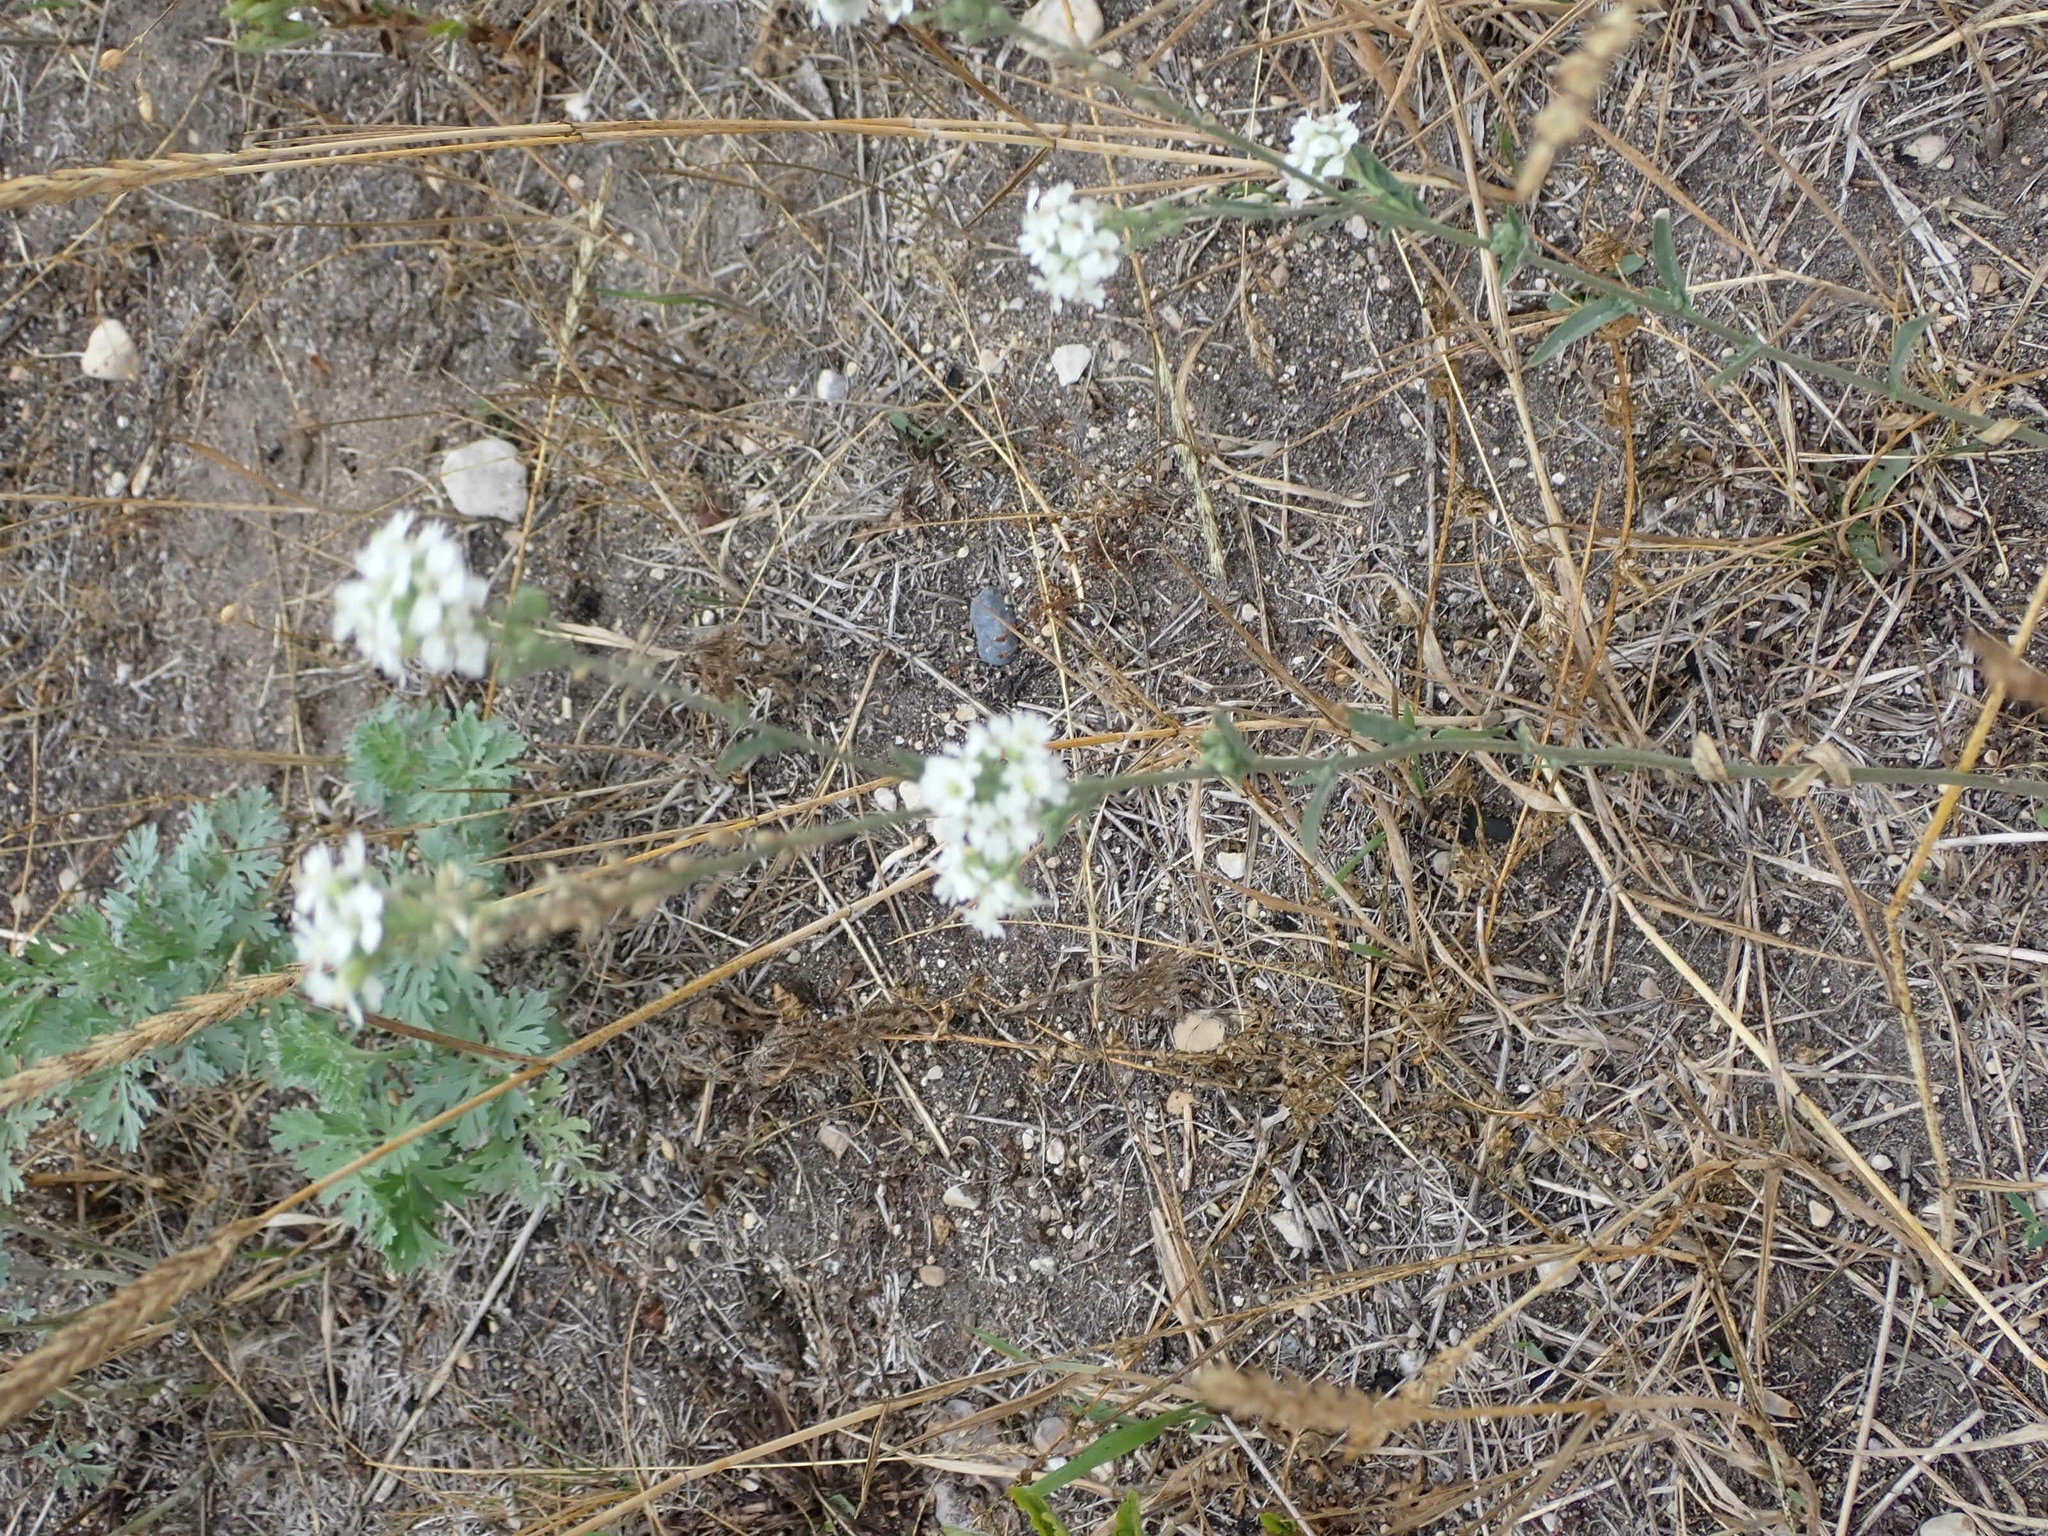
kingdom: Plantae
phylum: Tracheophyta
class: Magnoliopsida
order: Brassicales
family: Brassicaceae
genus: Berteroa
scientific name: Berteroa incana
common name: Hoary alison
